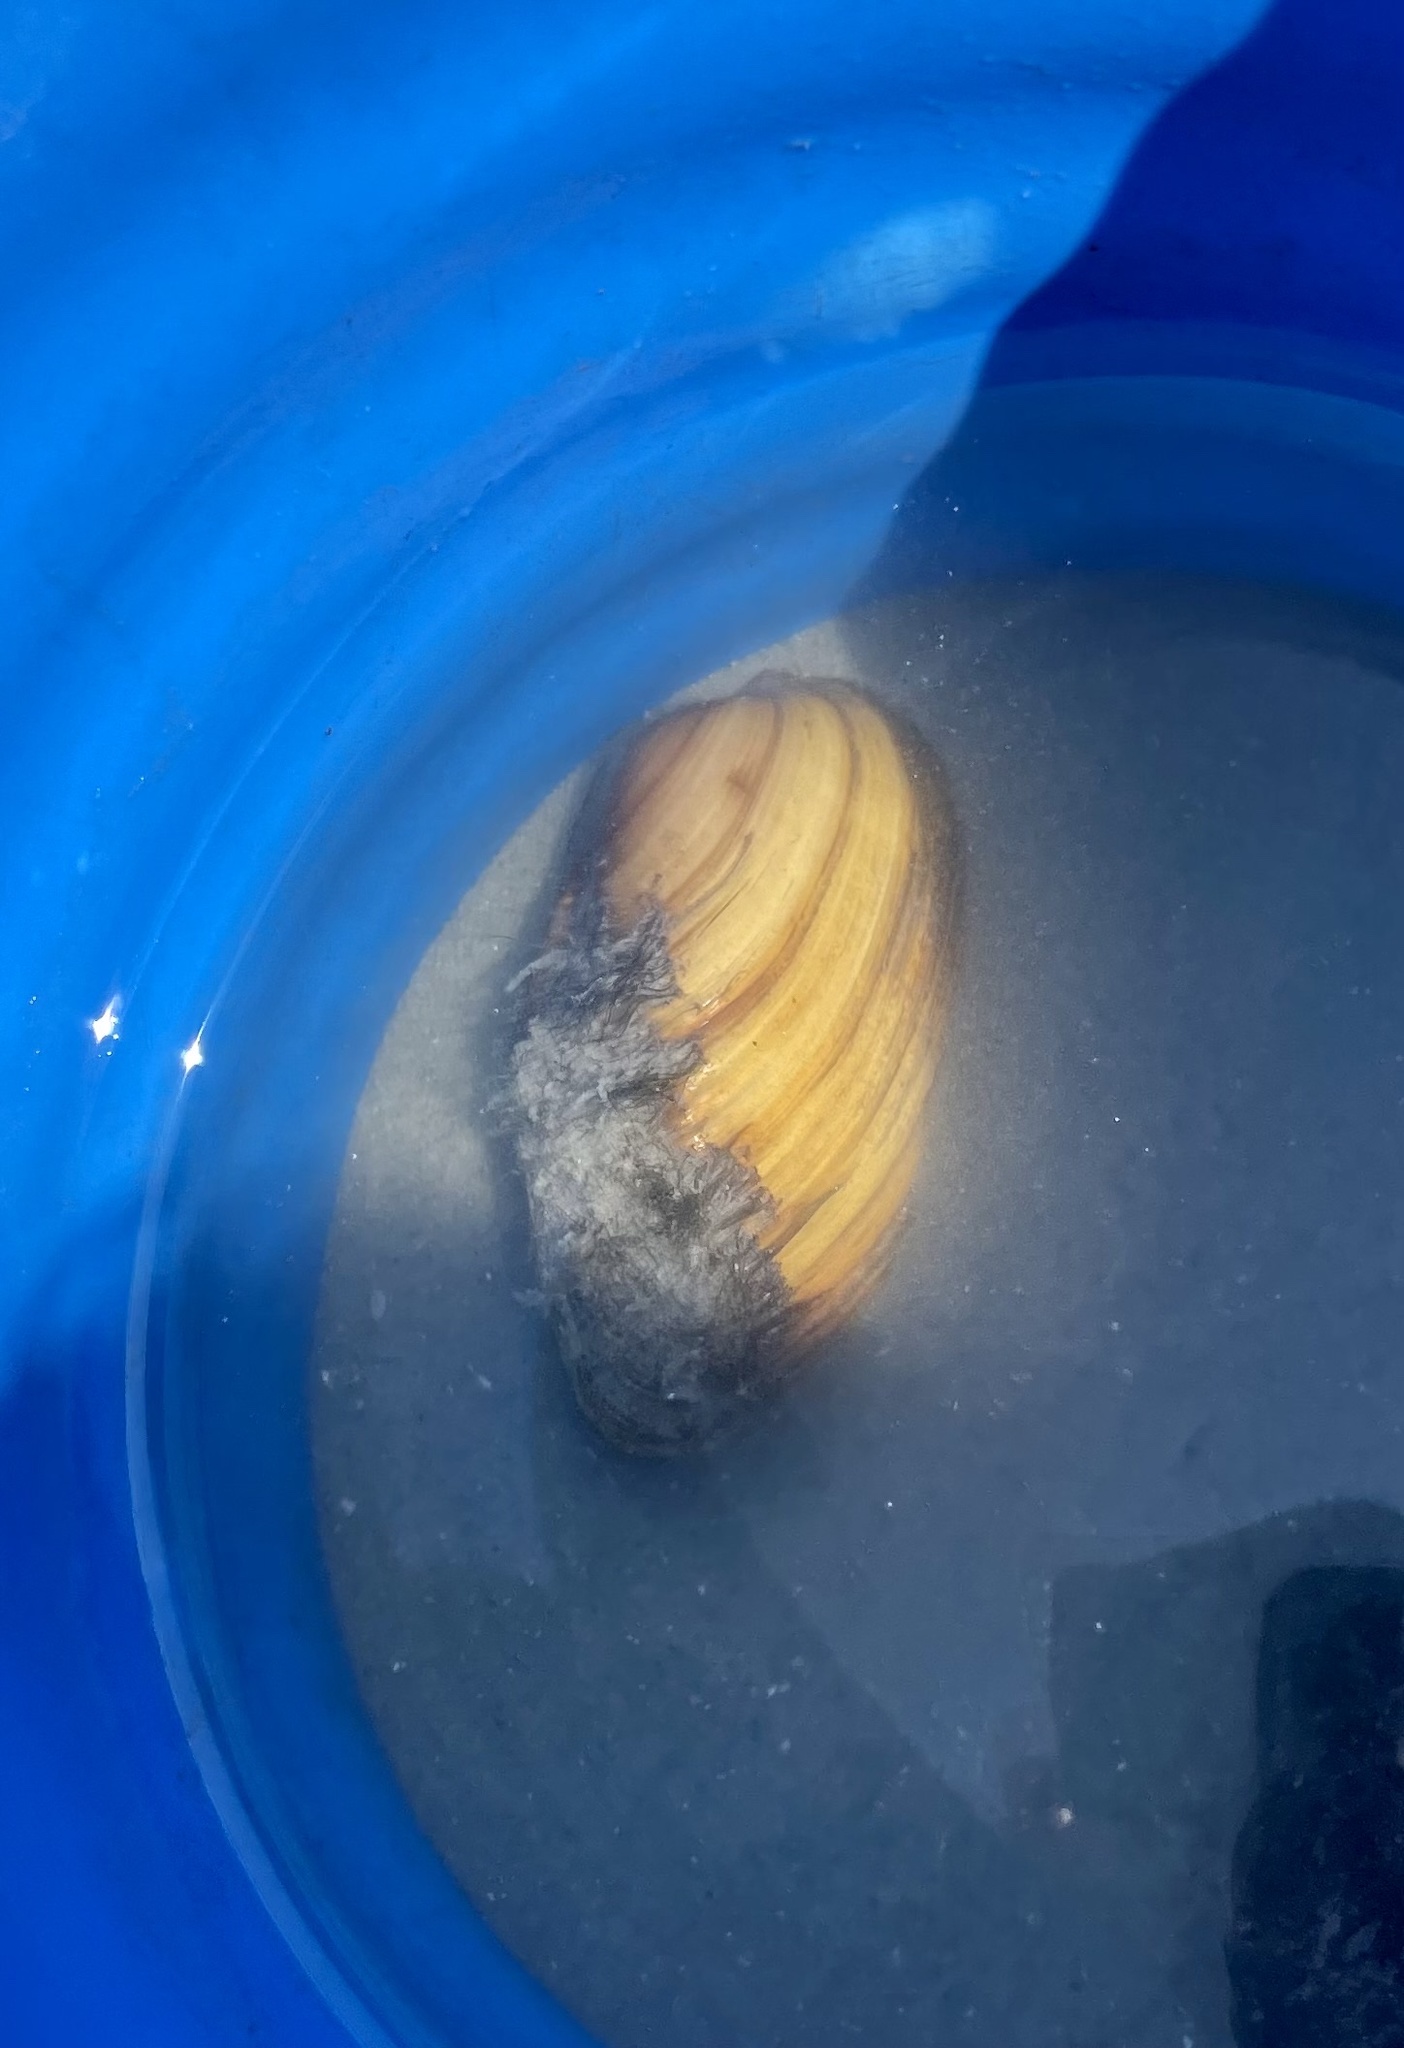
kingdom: Animalia
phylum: Mollusca
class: Bivalvia
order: Unionida
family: Unionidae
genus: Unio
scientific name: Unio pictorum
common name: Painter's mussel
